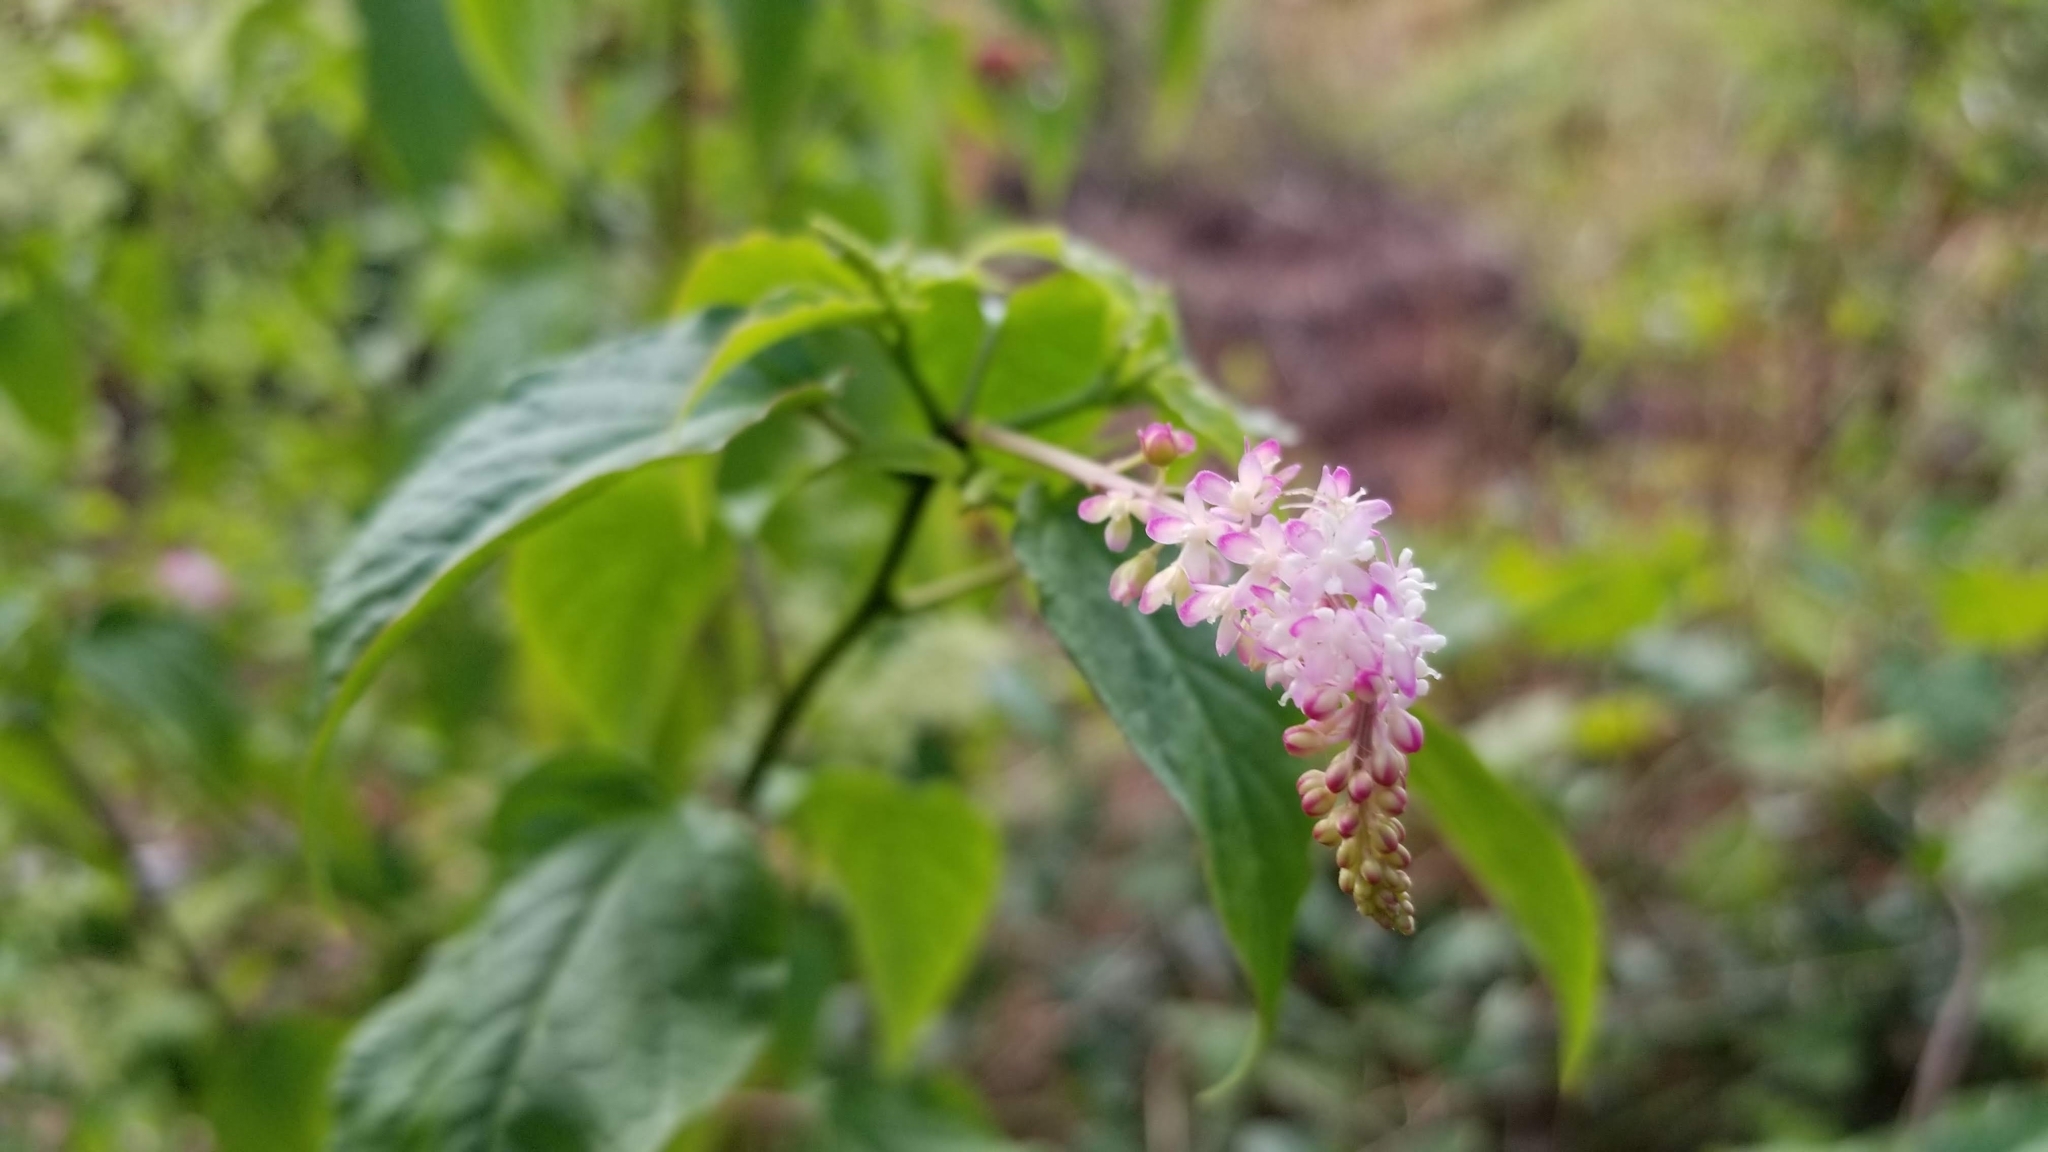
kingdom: Plantae
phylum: Tracheophyta
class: Magnoliopsida
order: Caryophyllales
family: Phytolaccaceae
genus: Rivina
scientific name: Rivina humilis
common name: Rougeplant
